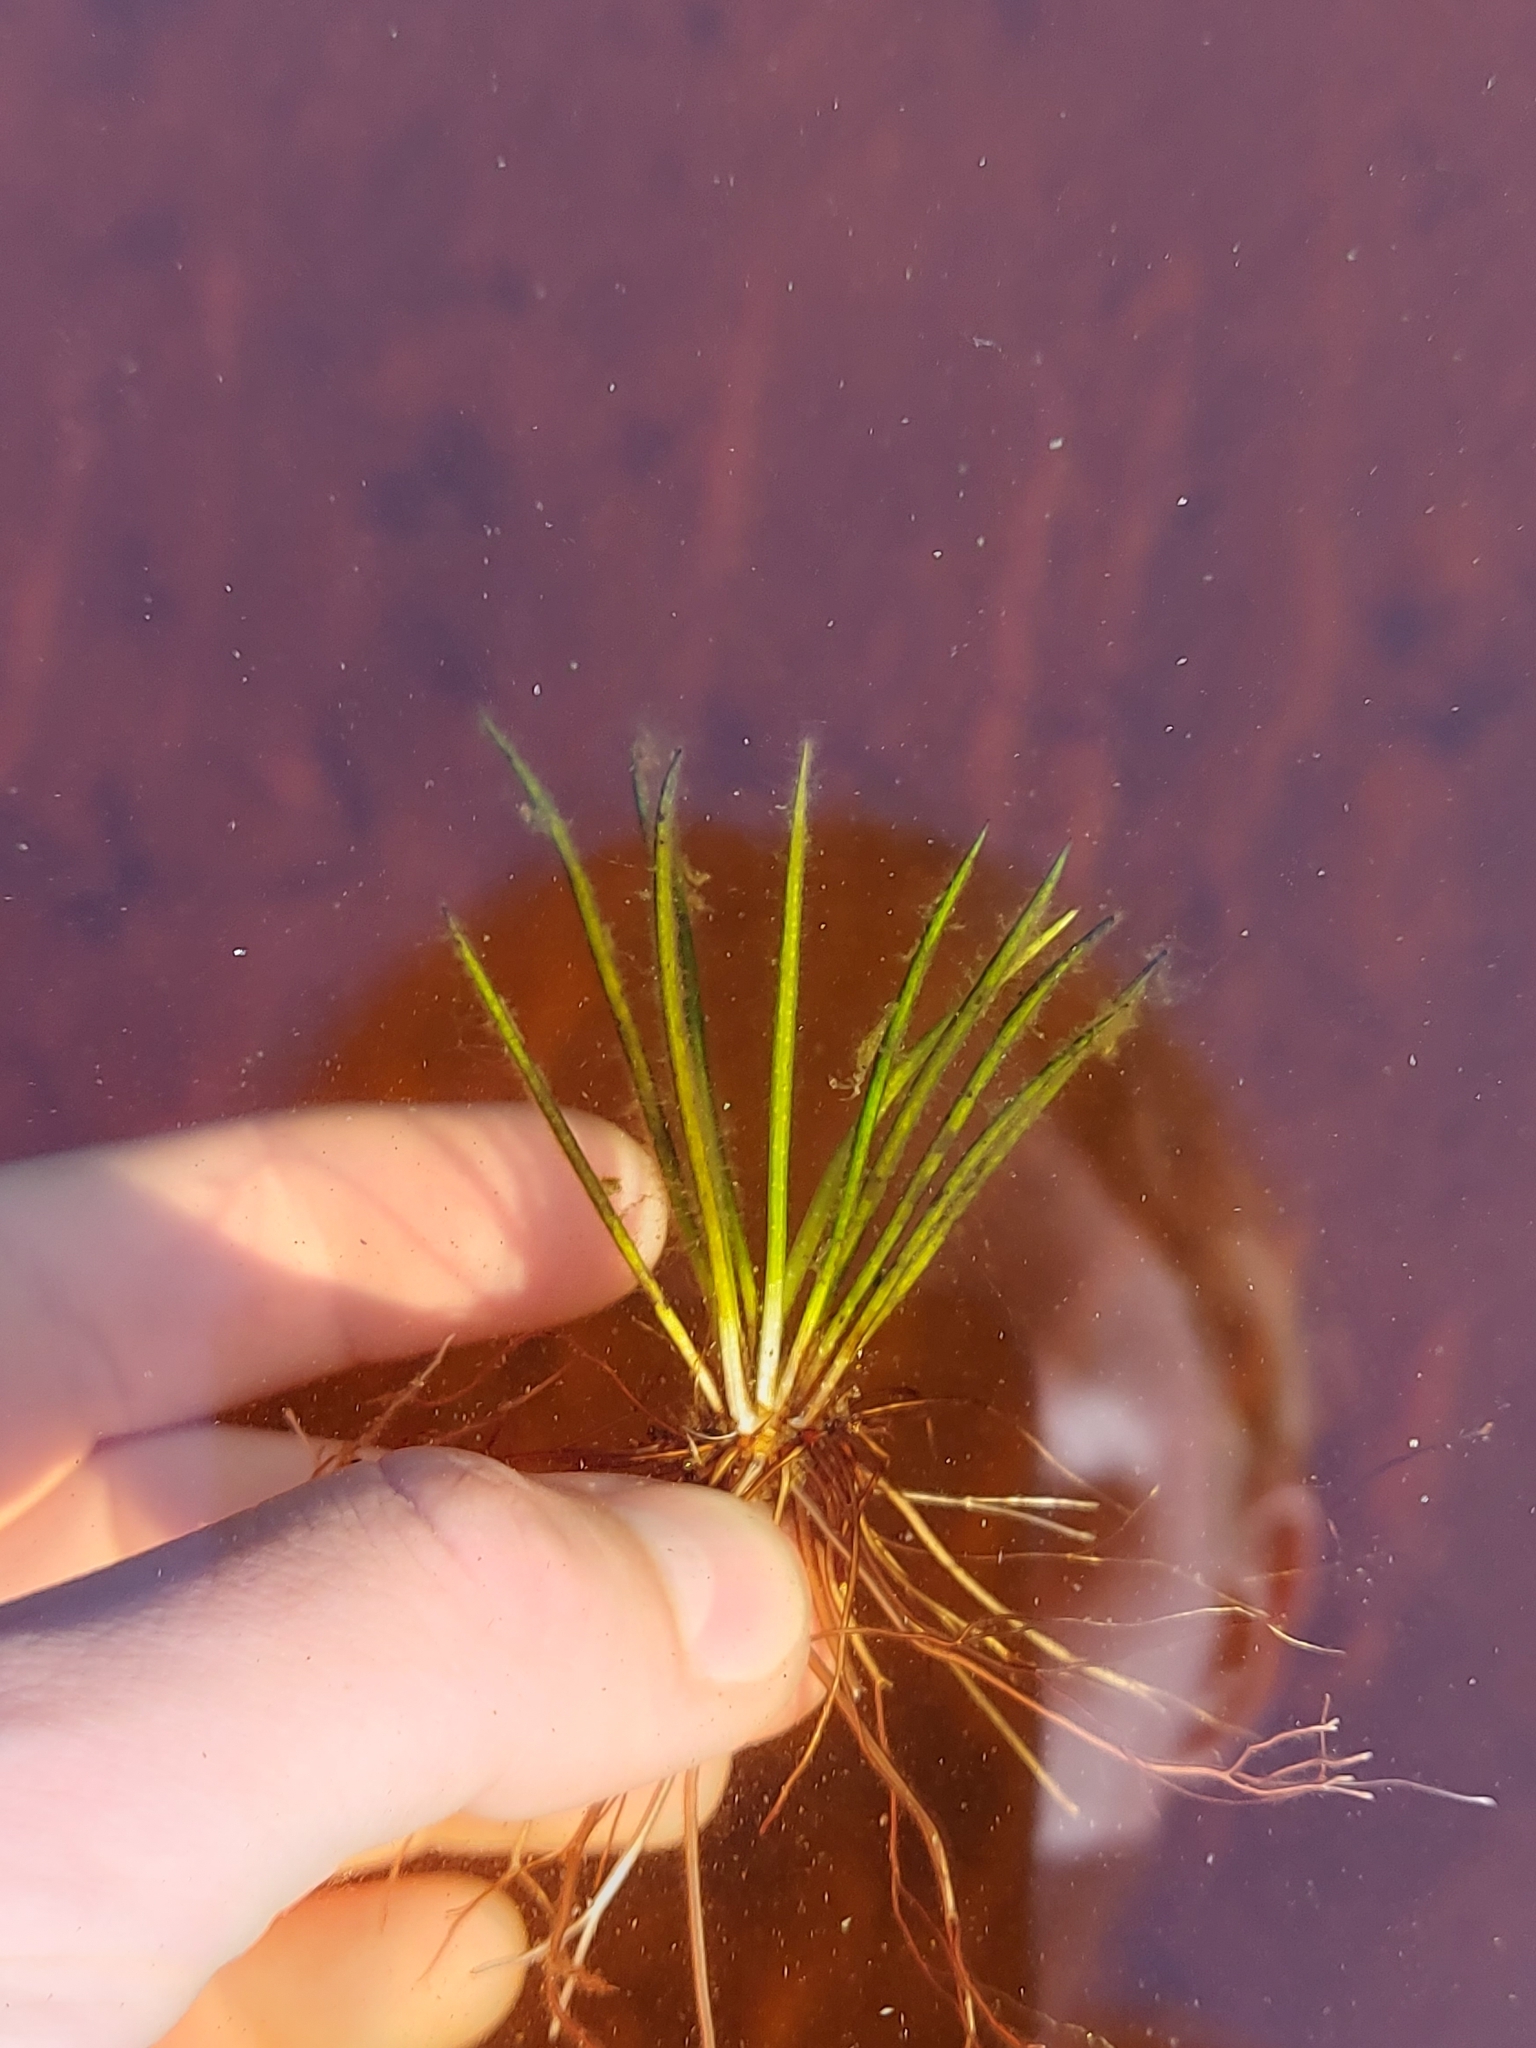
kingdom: Plantae
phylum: Tracheophyta
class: Lycopodiopsida
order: Isoetales
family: Isoetaceae
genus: Isoetes
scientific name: Isoetes lacustris
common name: Common quillwort
